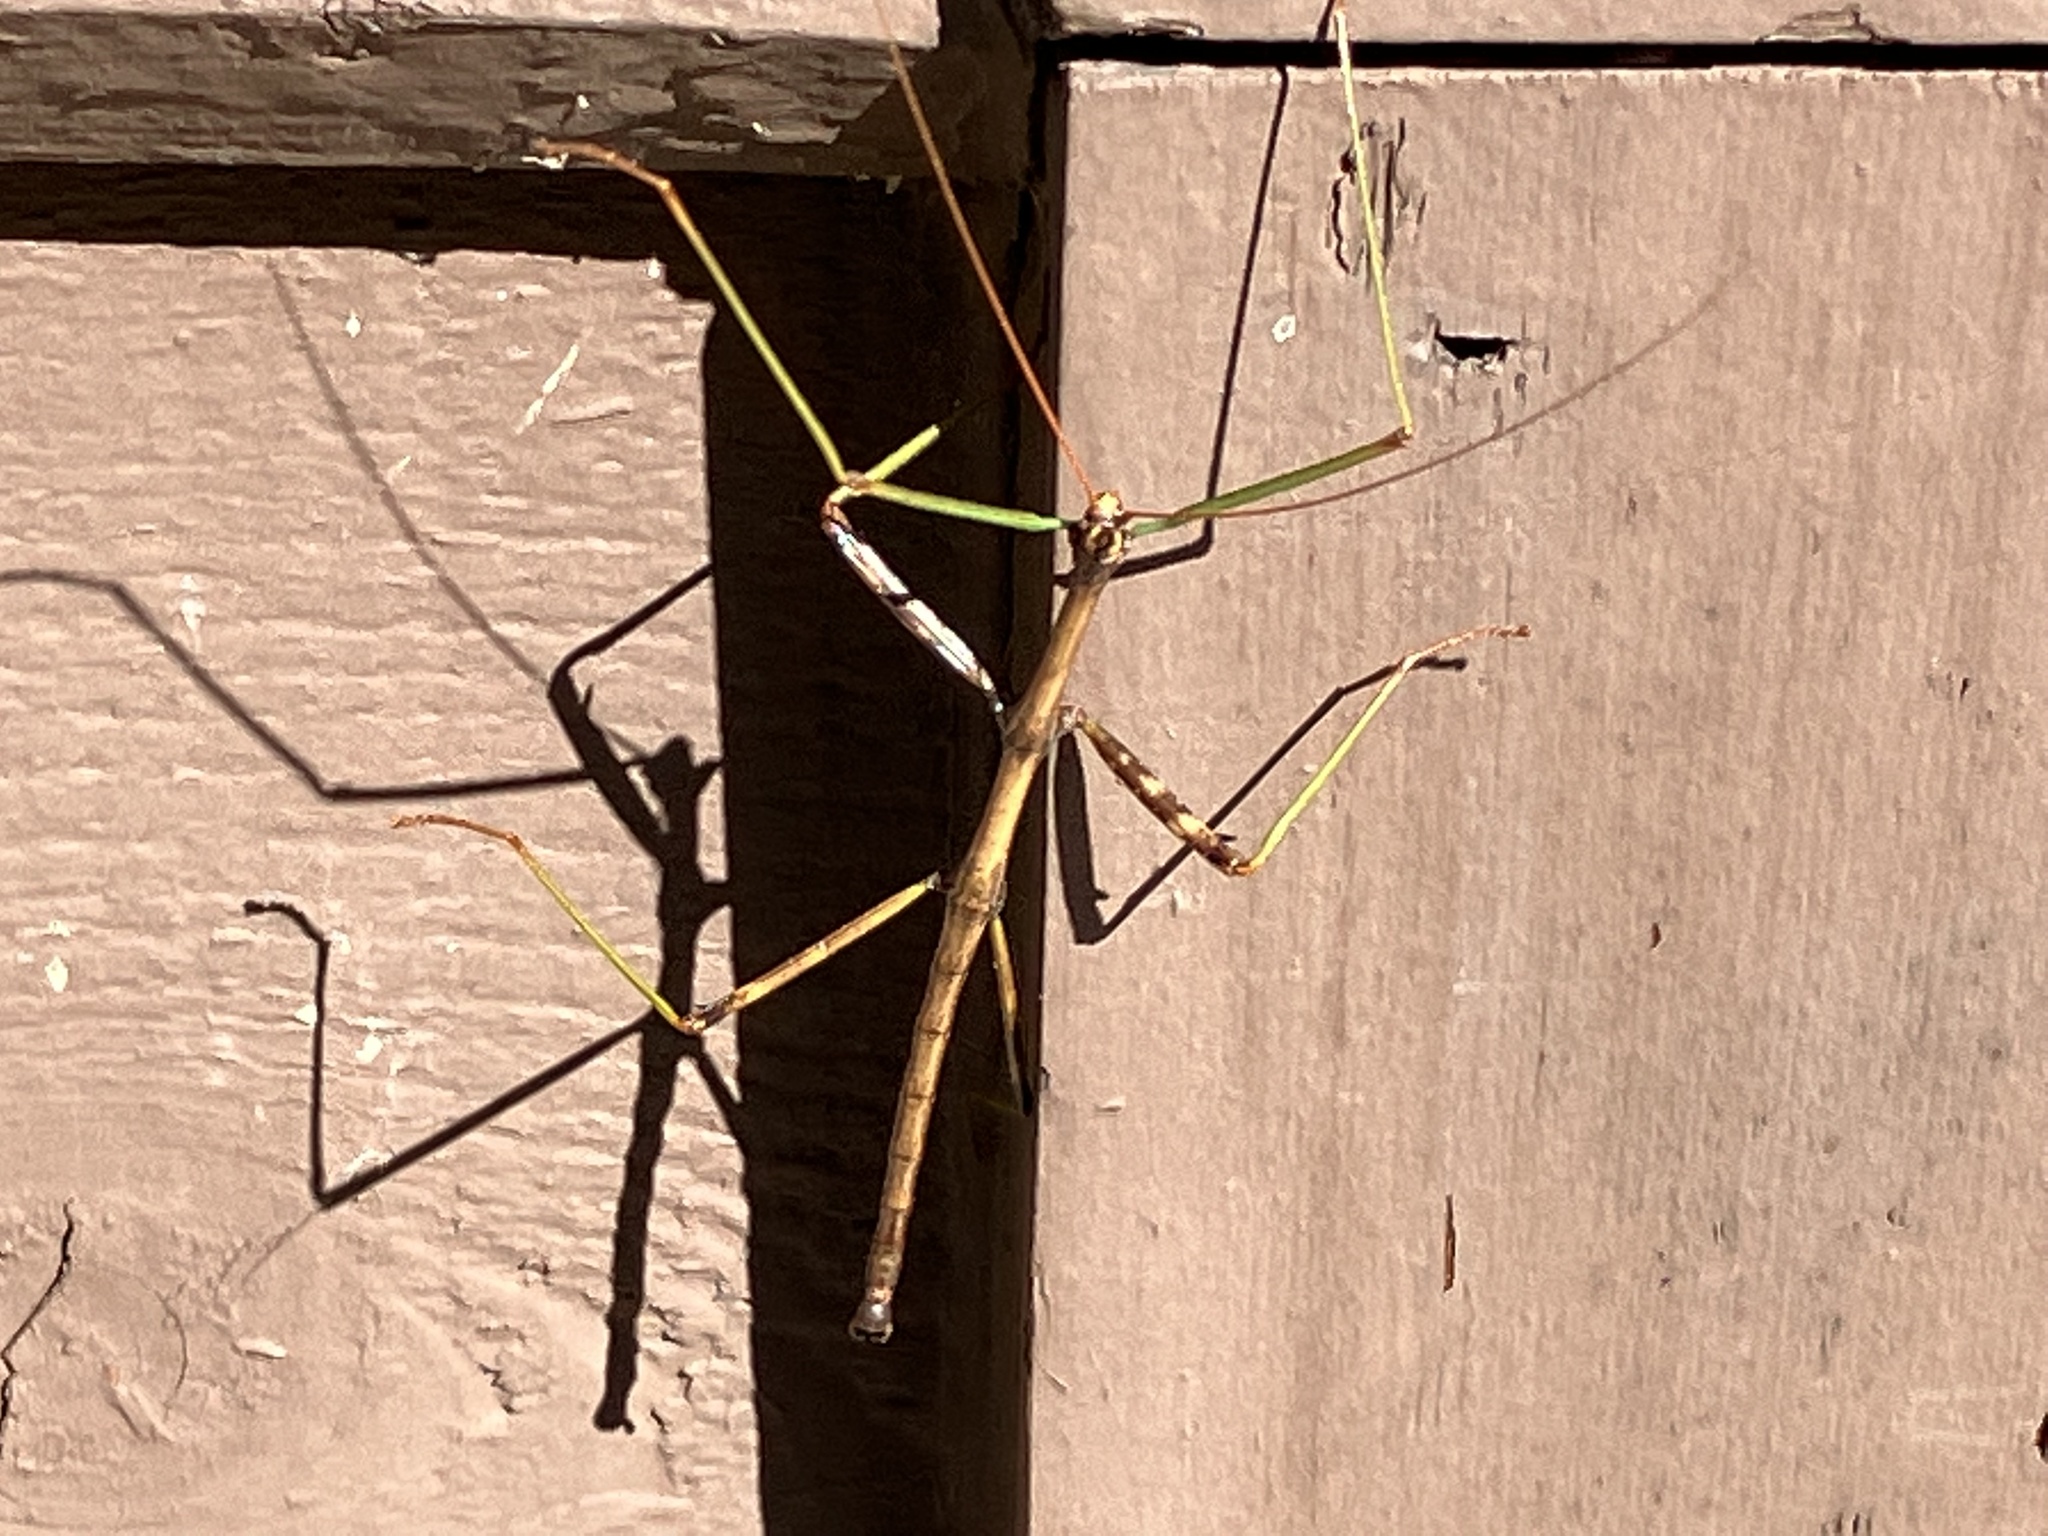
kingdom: Animalia
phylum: Arthropoda
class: Insecta
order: Phasmida
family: Diapheromeridae
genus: Diapheromera
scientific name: Diapheromera femorata
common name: Common american walkingstick
